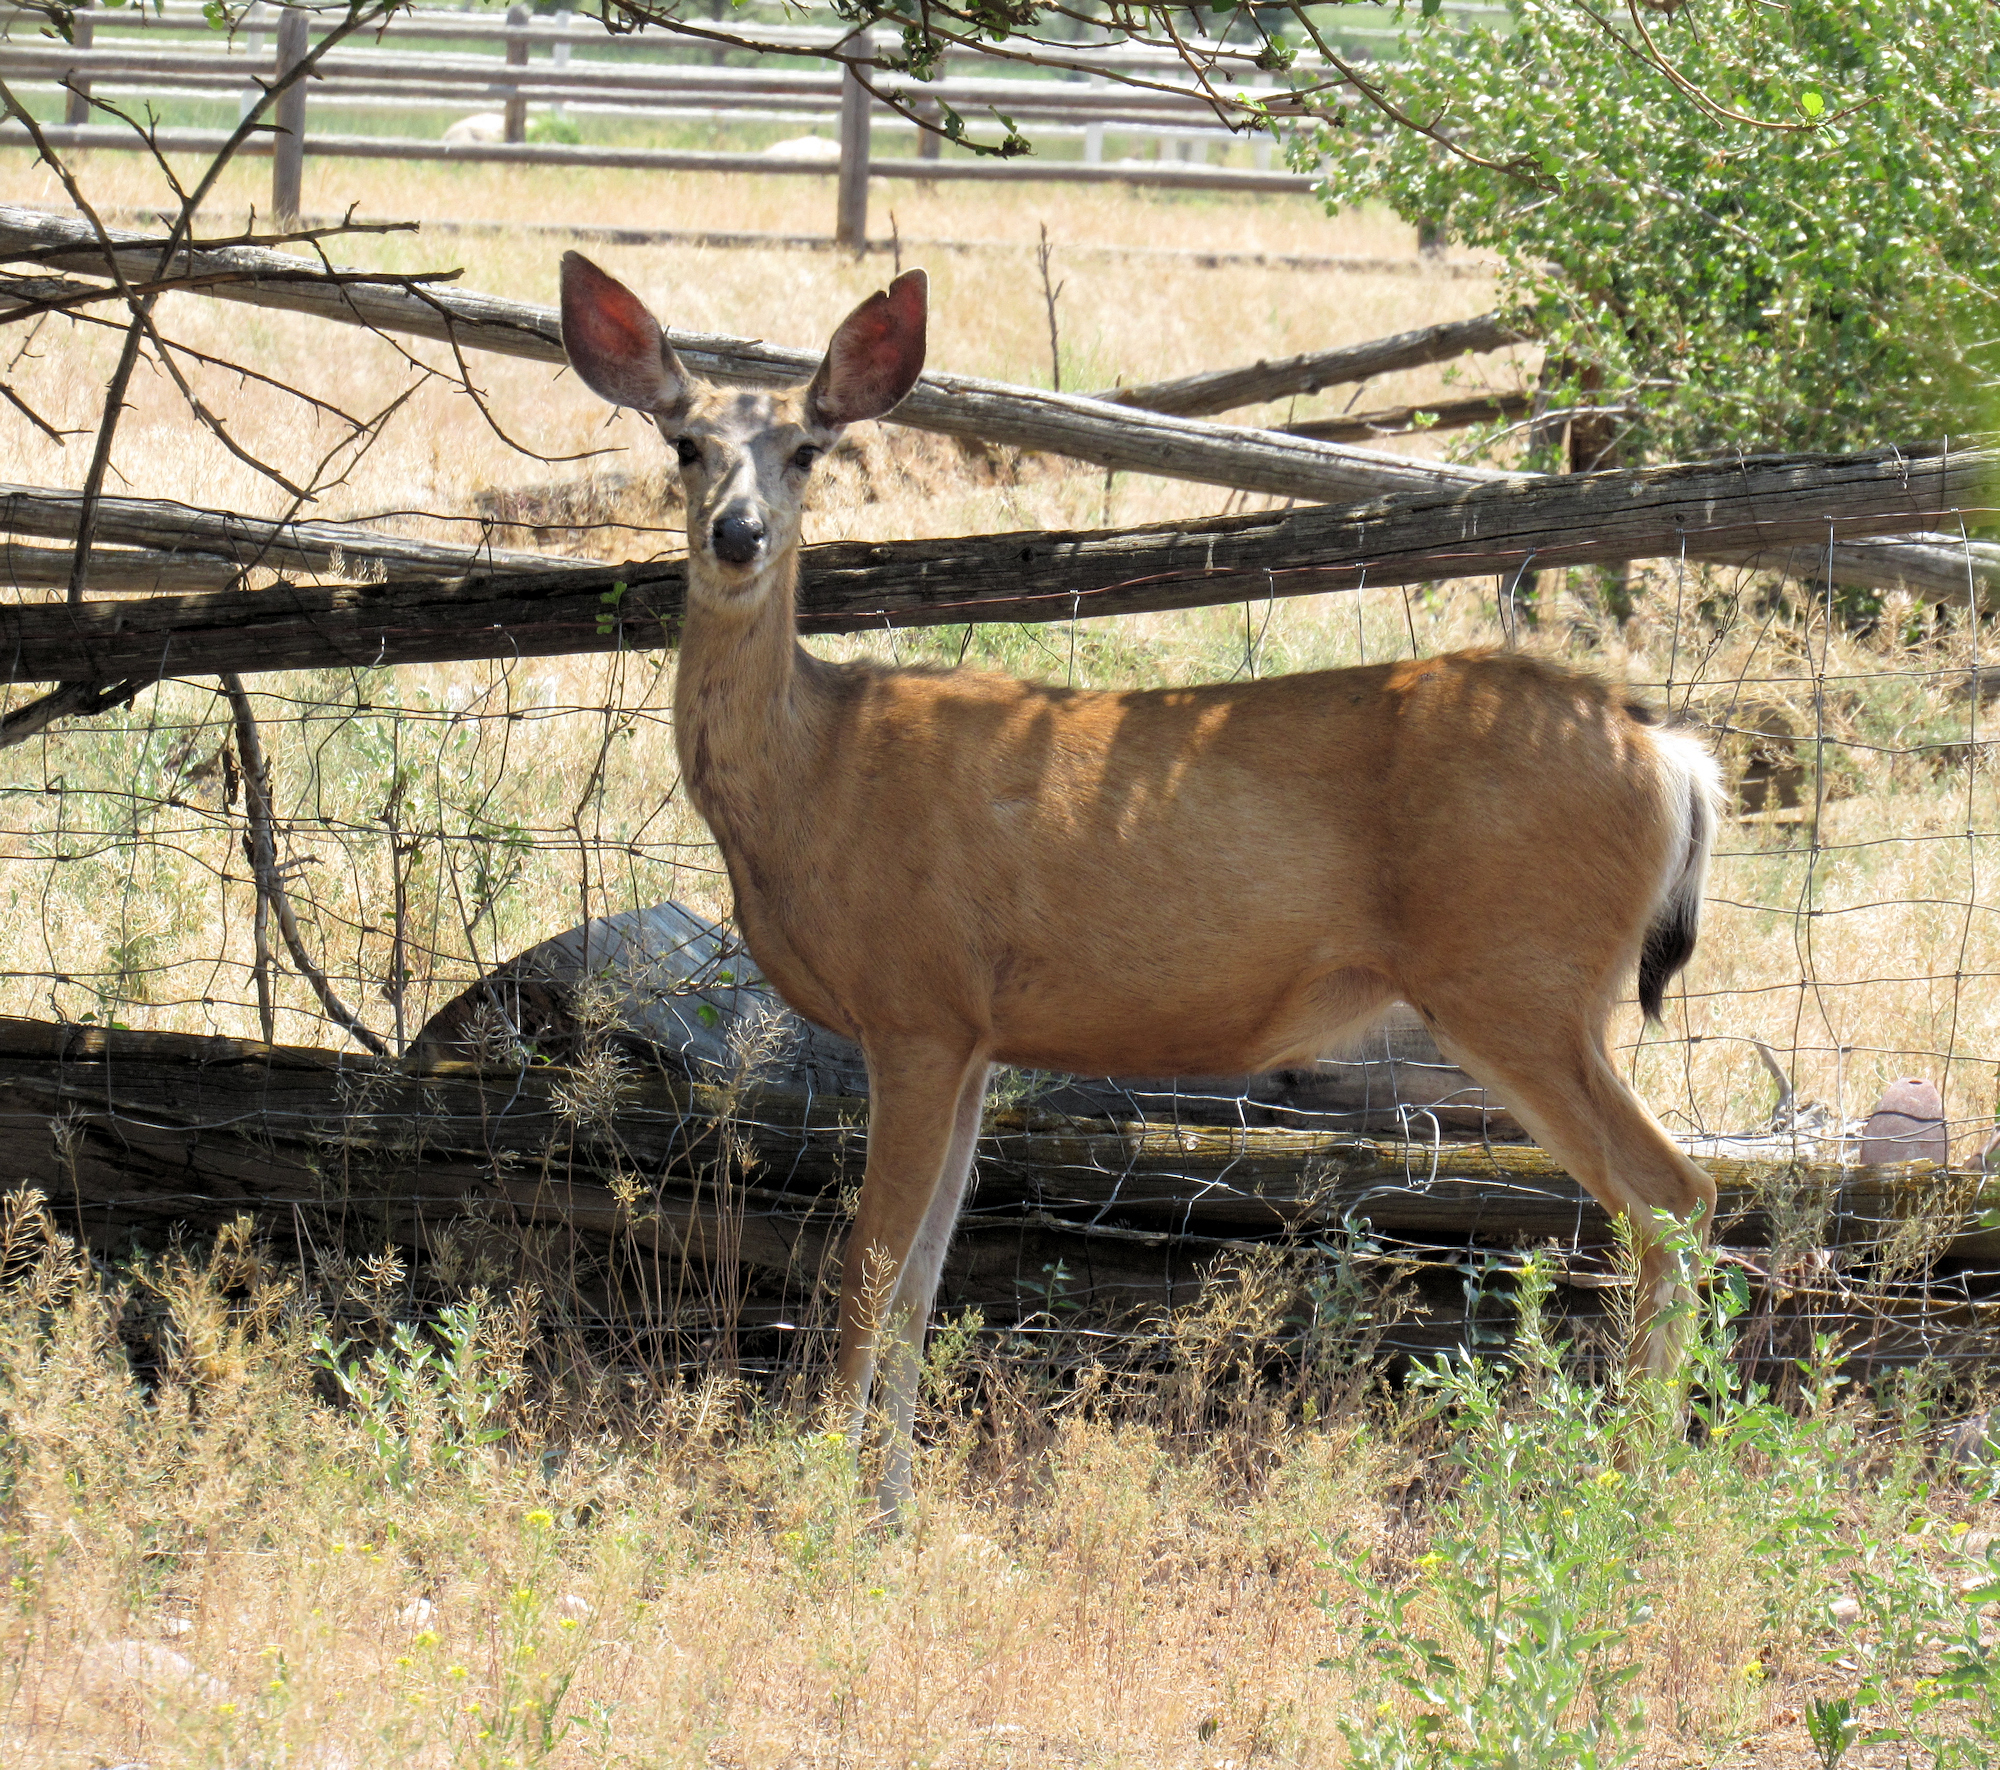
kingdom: Animalia
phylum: Chordata
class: Mammalia
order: Artiodactyla
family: Cervidae
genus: Odocoileus
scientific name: Odocoileus hemionus
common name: Mule deer
